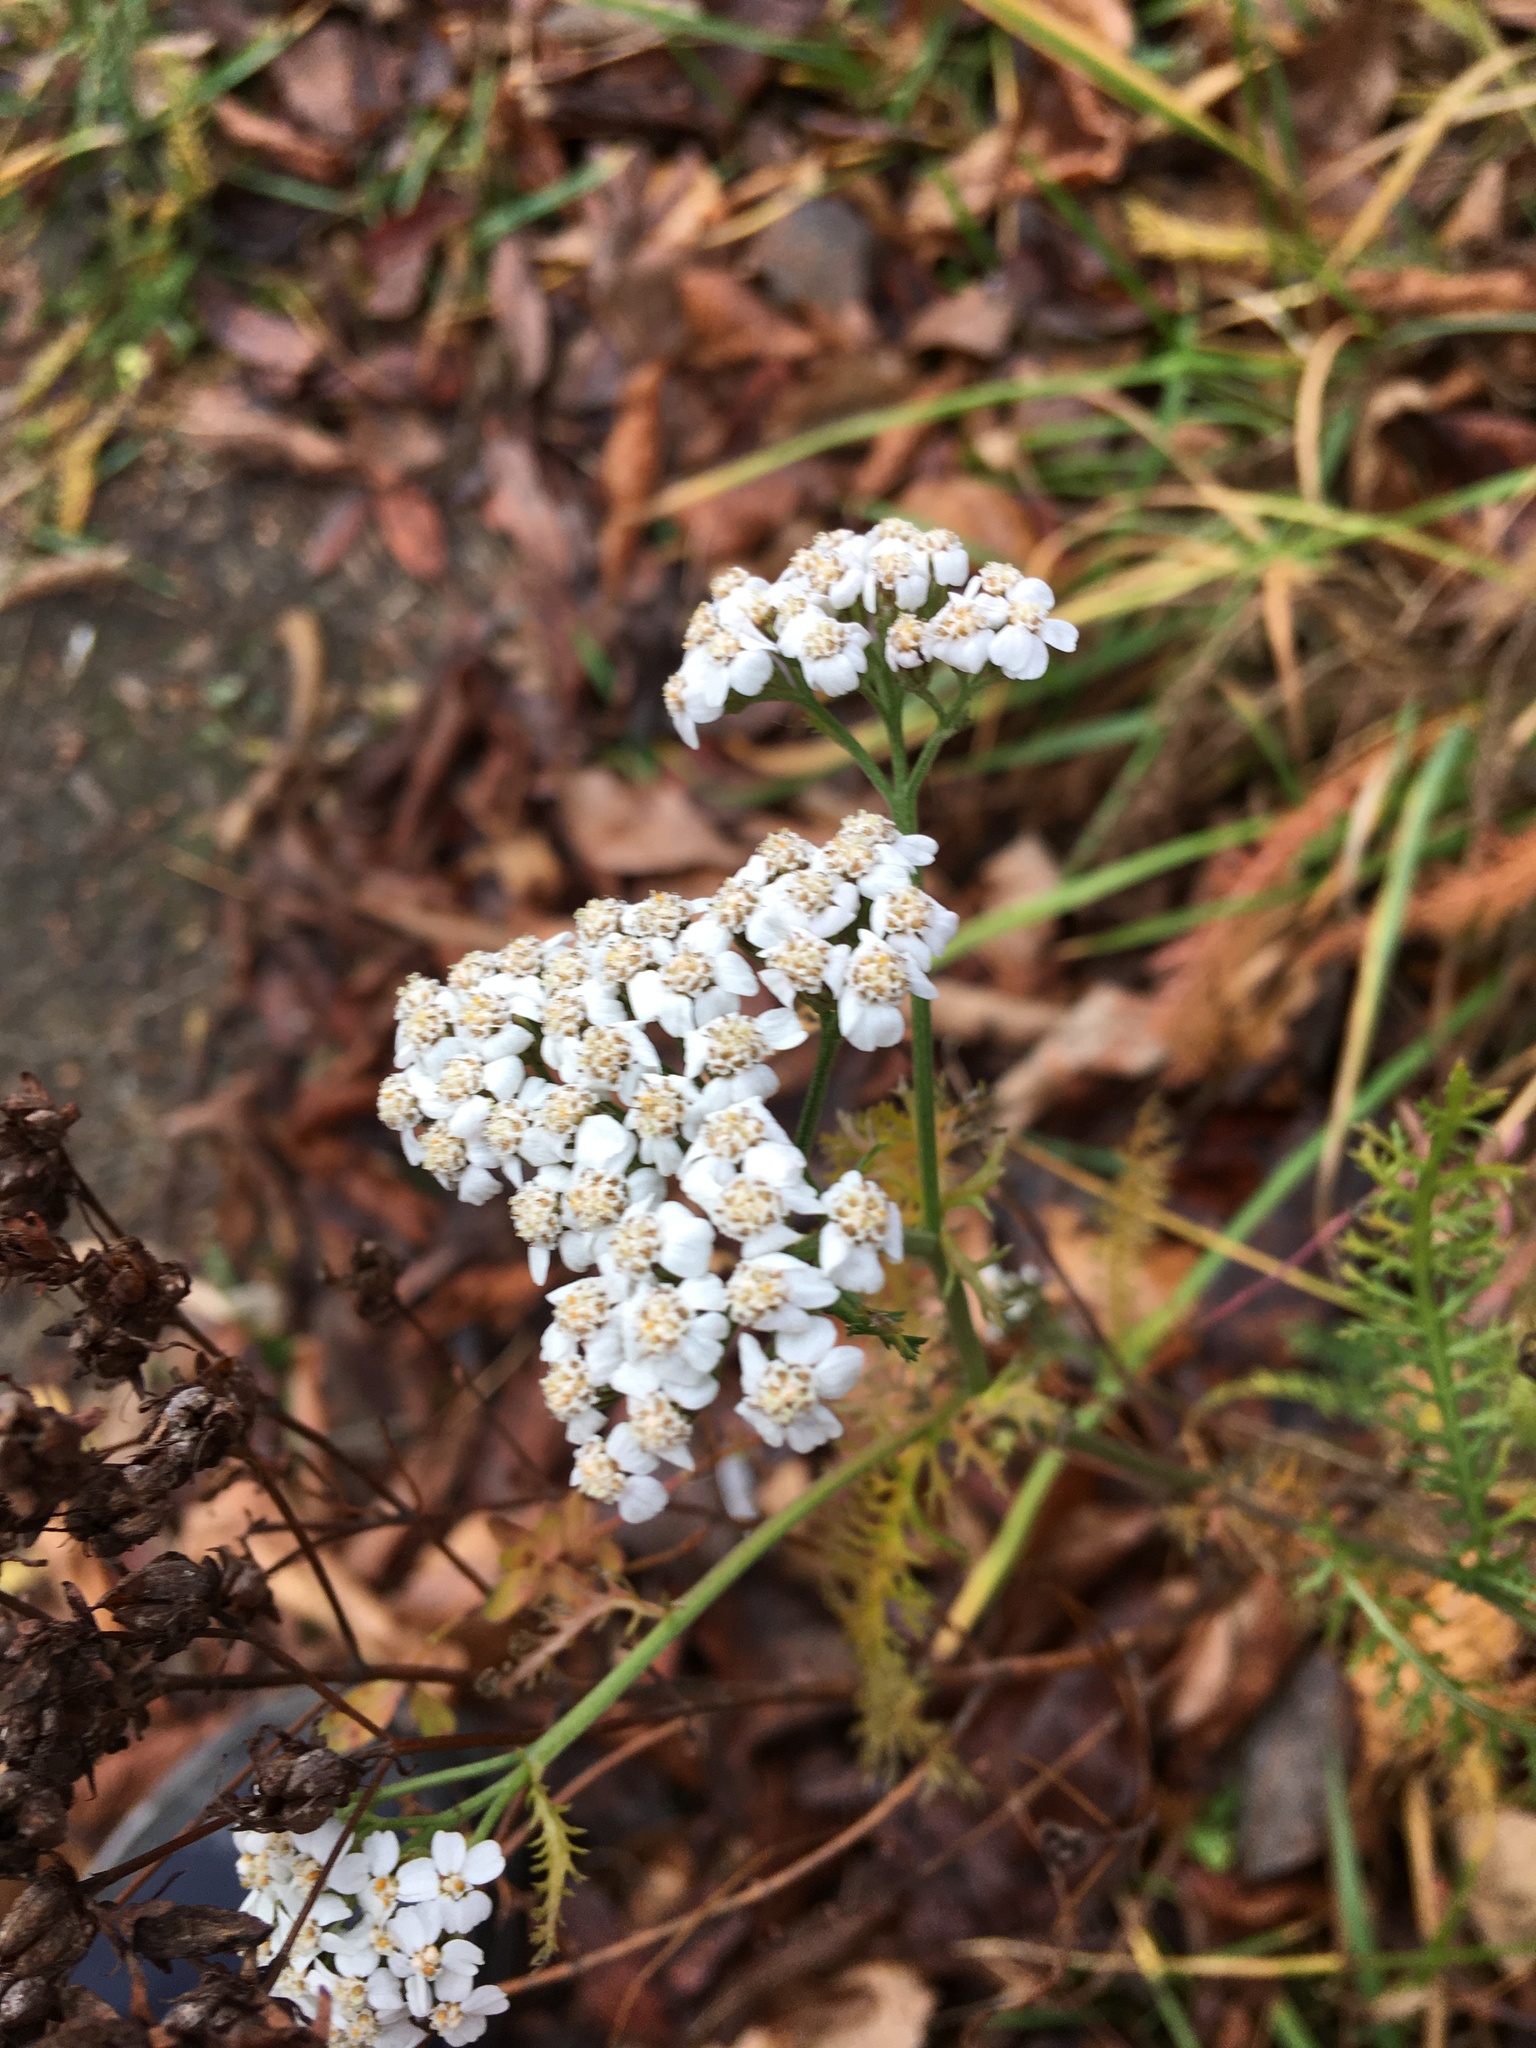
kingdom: Plantae
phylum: Tracheophyta
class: Magnoliopsida
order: Asterales
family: Asteraceae
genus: Achillea
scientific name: Achillea millefolium
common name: Yarrow
